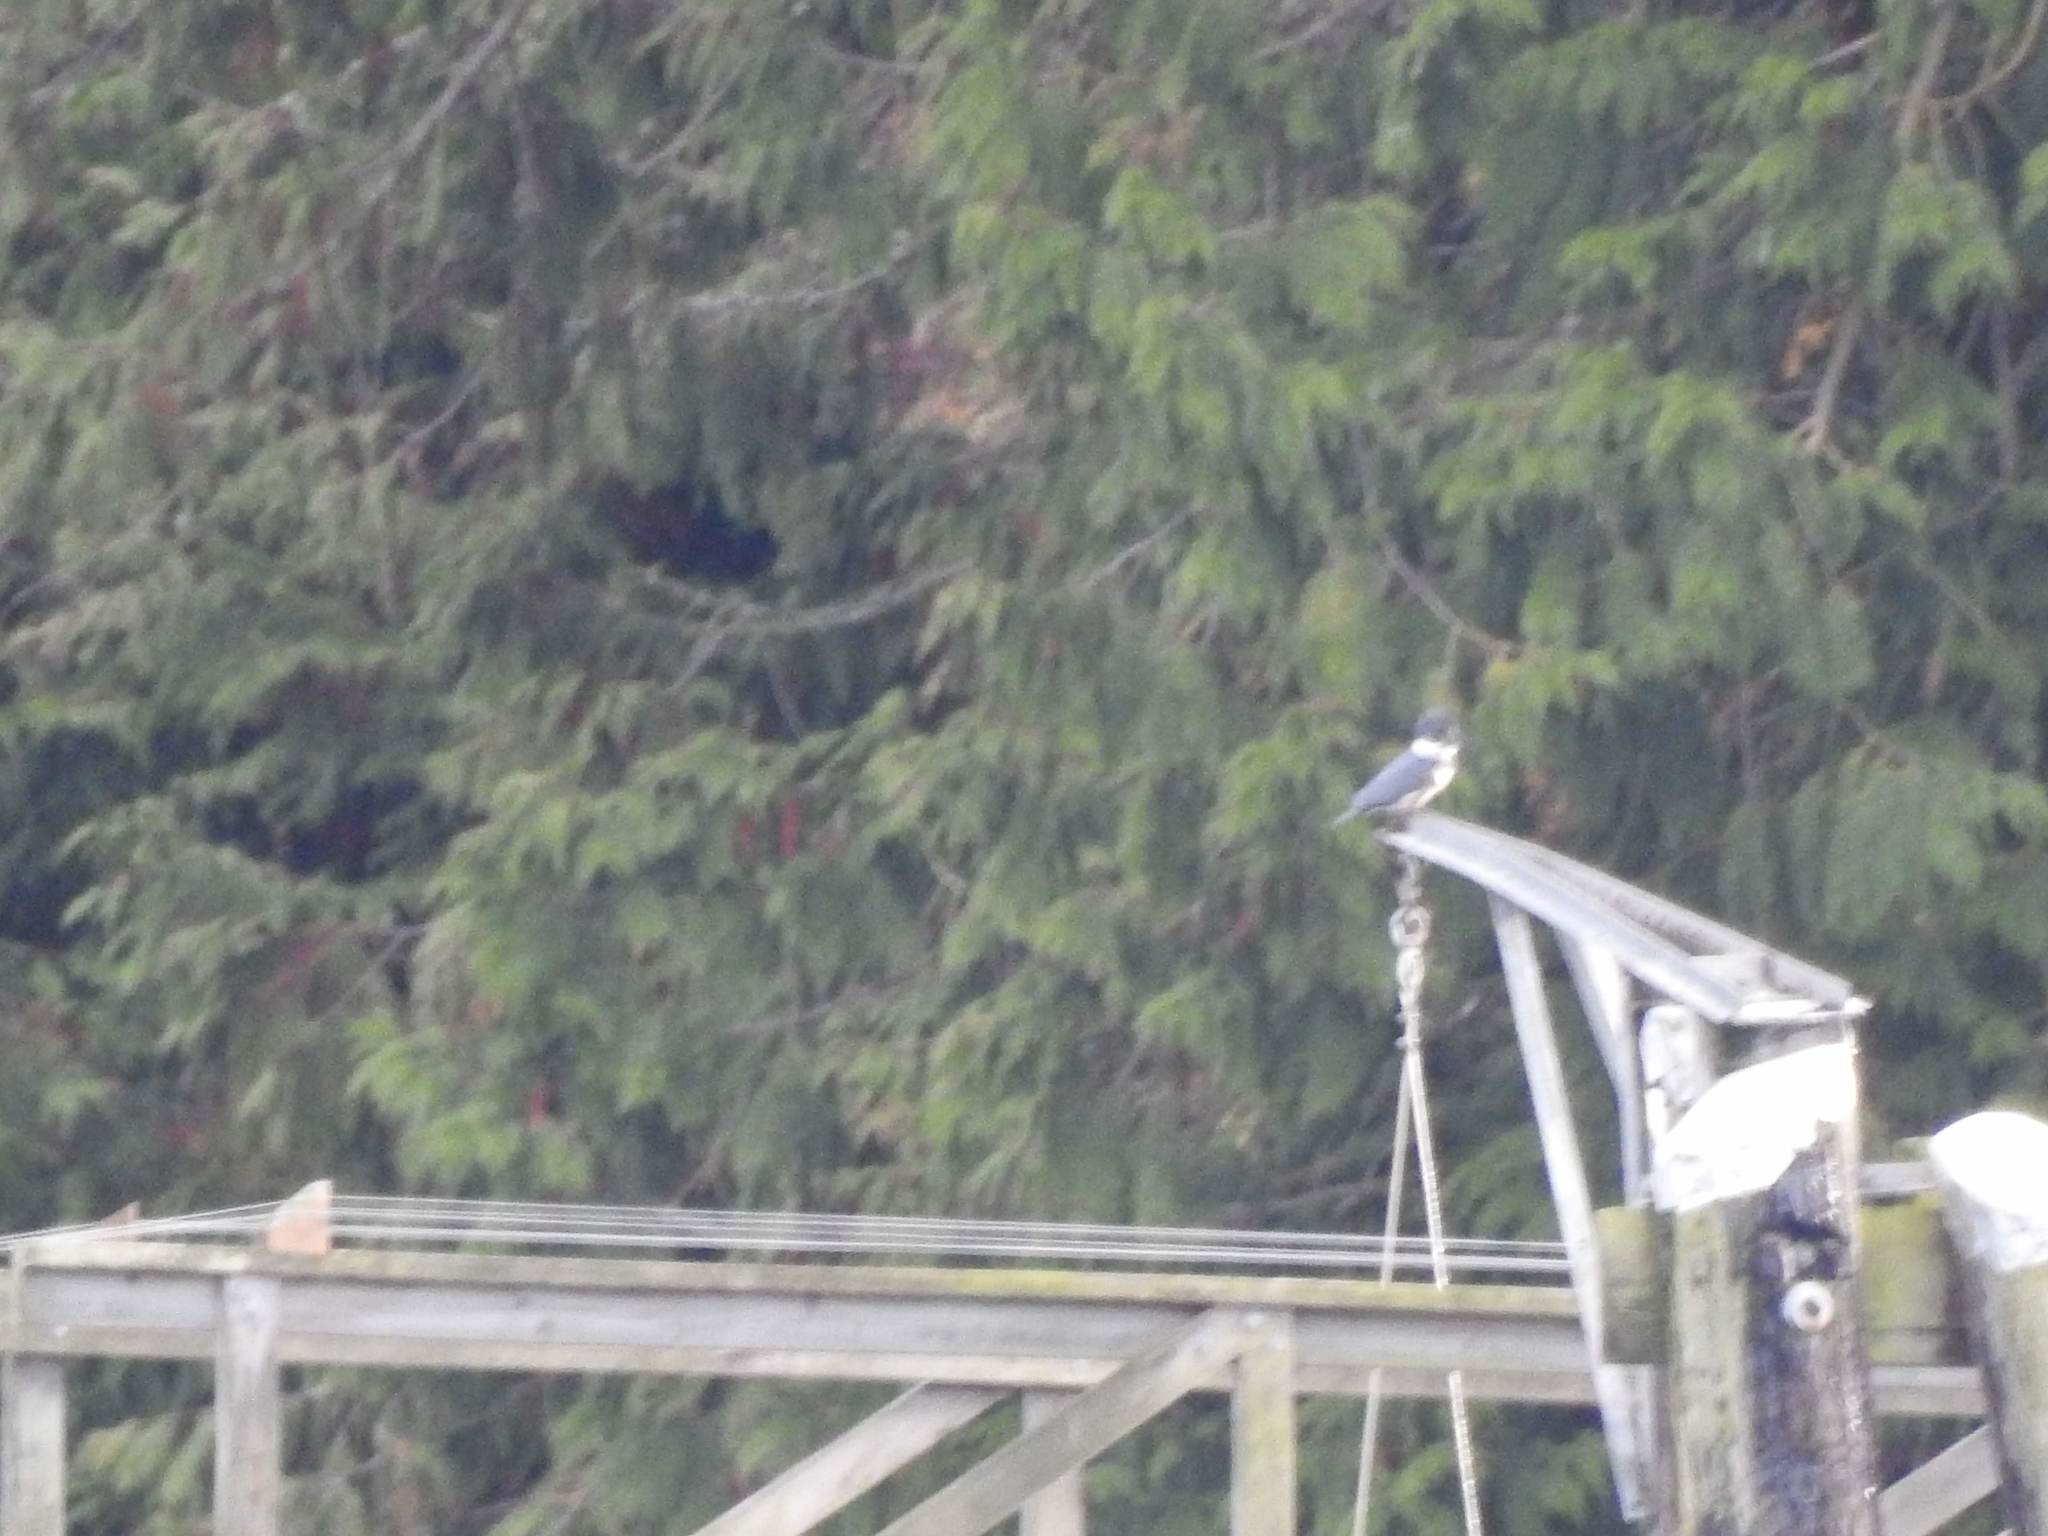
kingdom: Animalia
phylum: Chordata
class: Aves
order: Coraciiformes
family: Alcedinidae
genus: Megaceryle
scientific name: Megaceryle alcyon
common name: Belted kingfisher
